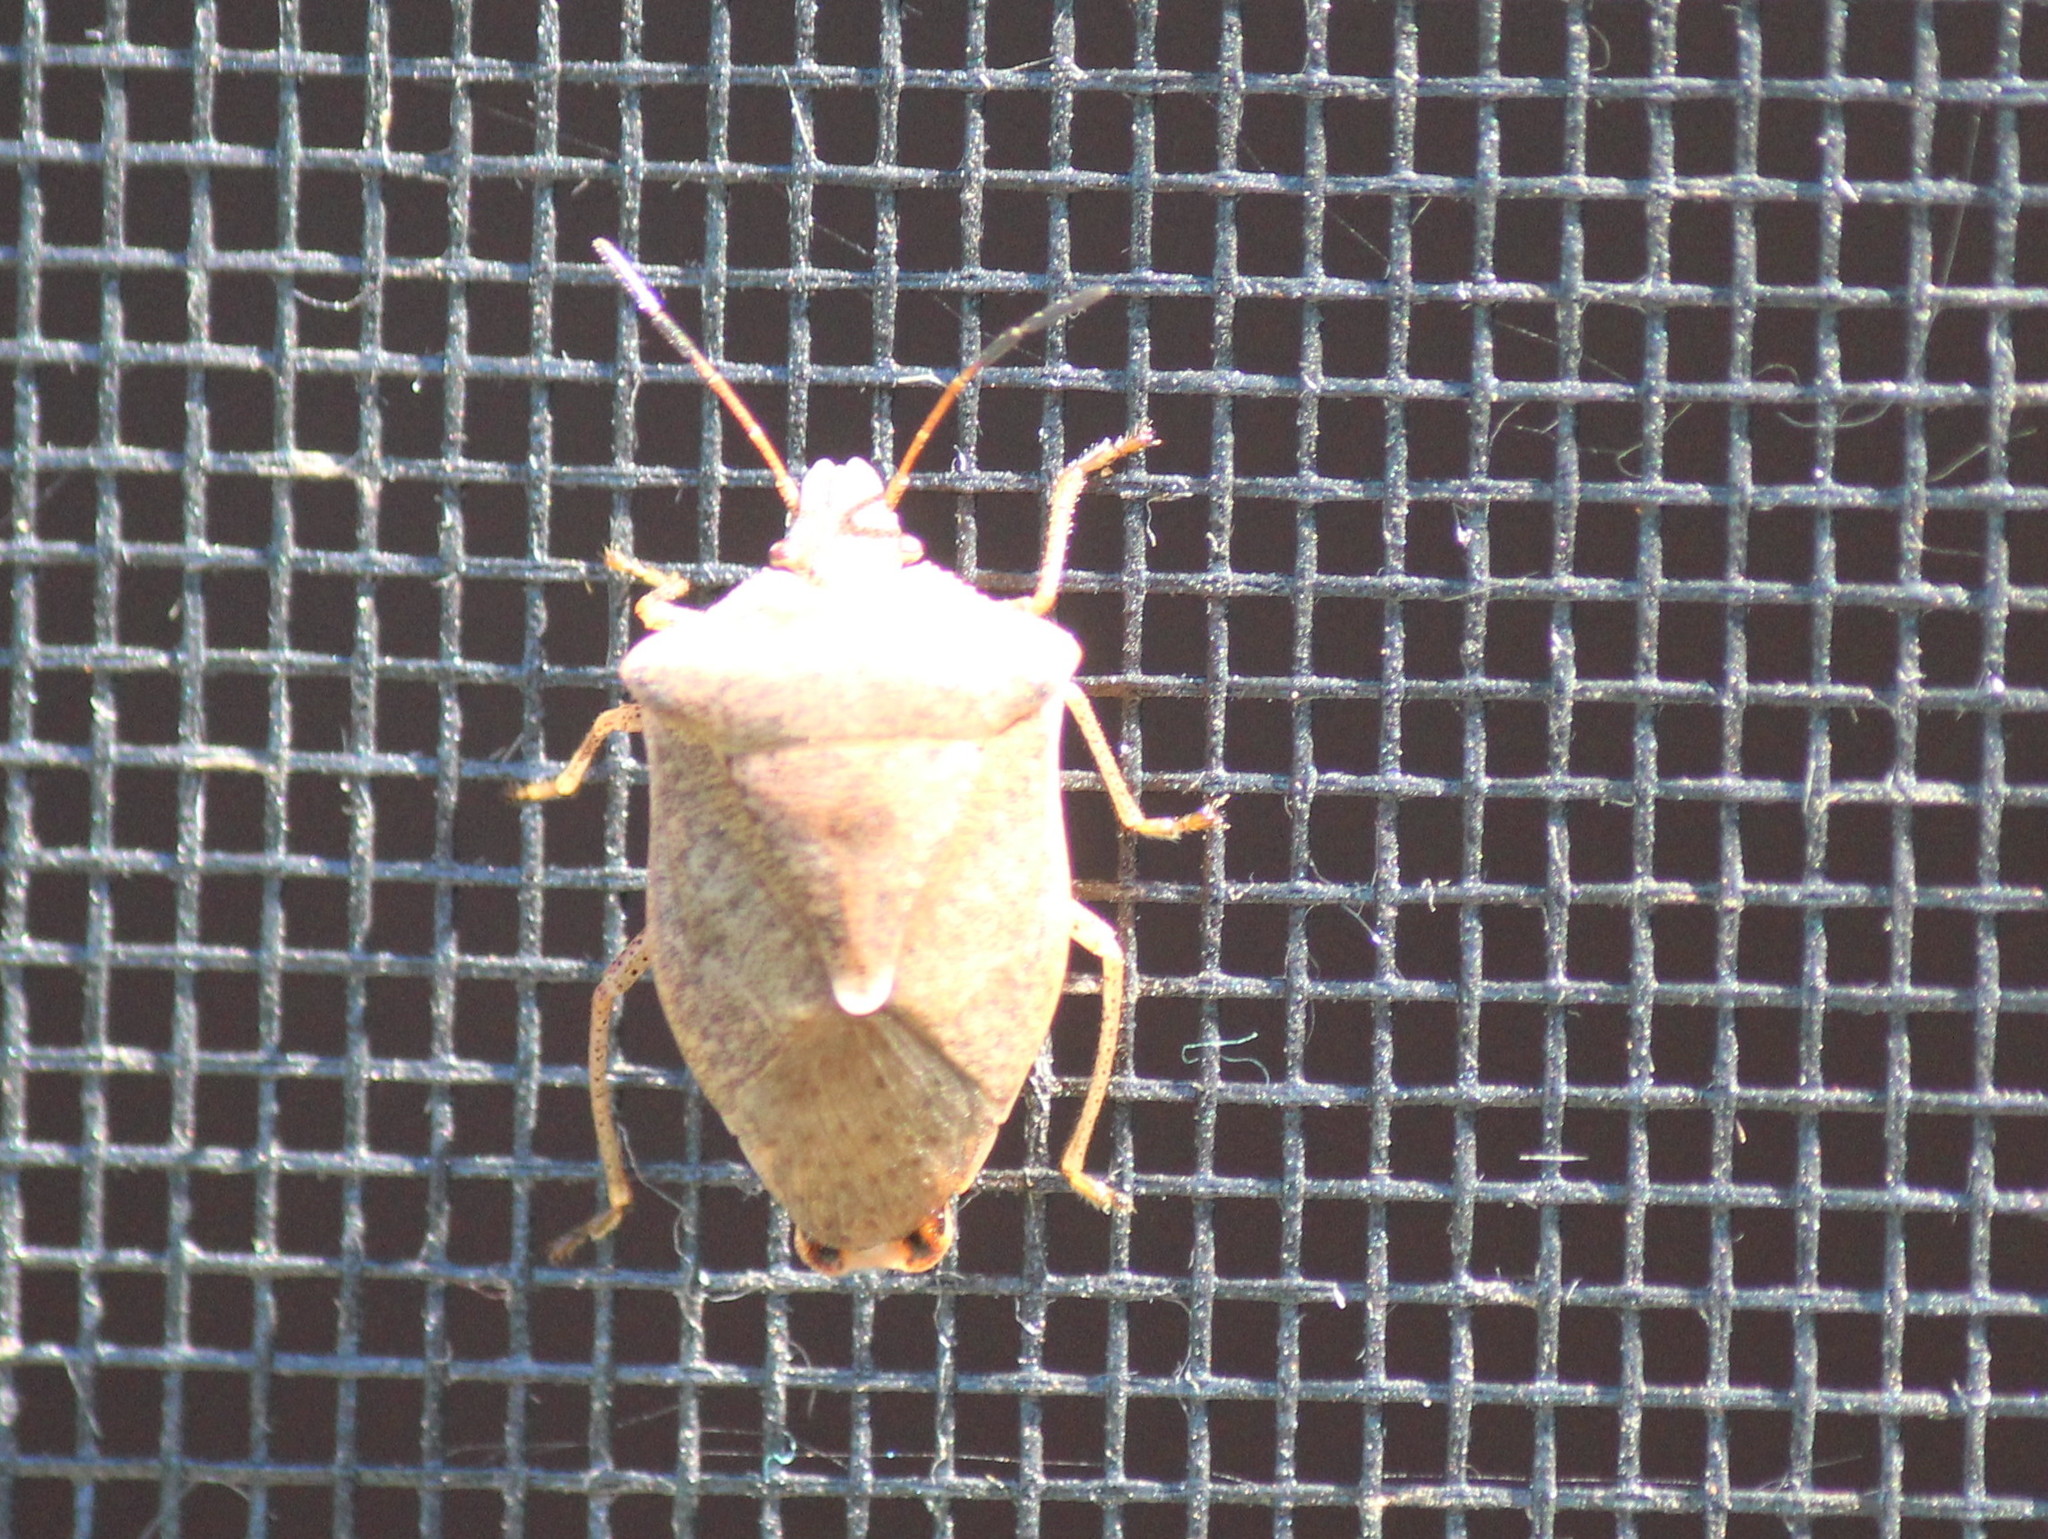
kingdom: Animalia
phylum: Arthropoda
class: Insecta
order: Hemiptera
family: Pentatomidae
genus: Euschistus
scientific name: Euschistus servus
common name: Brown stink bug
